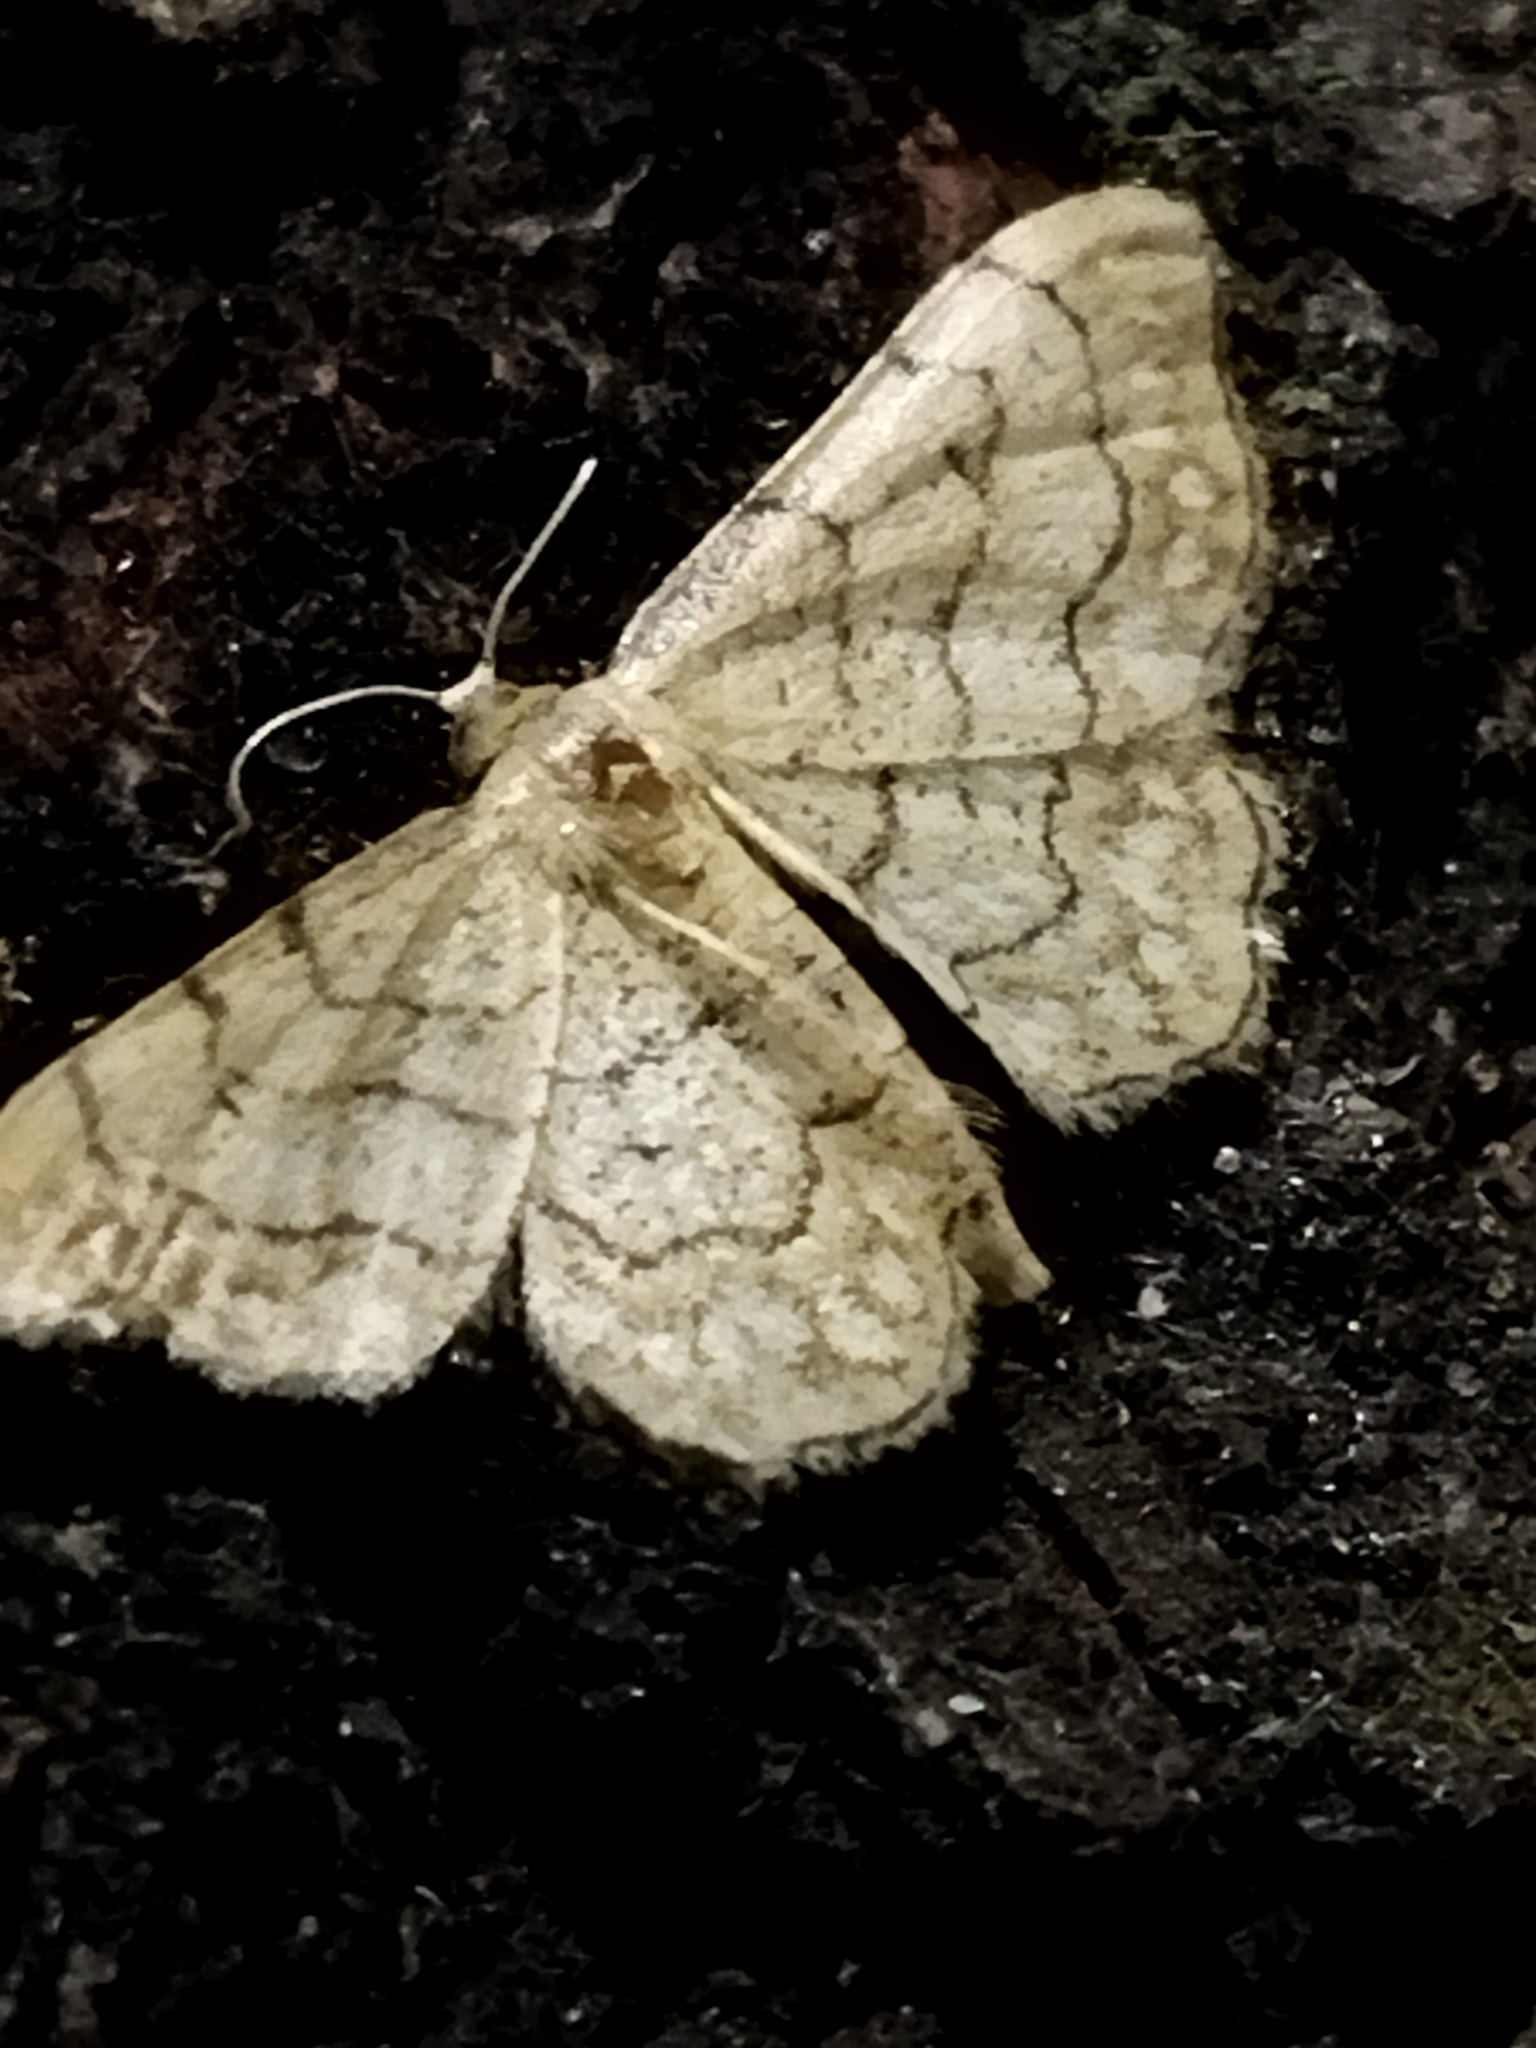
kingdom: Animalia
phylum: Arthropoda
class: Insecta
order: Lepidoptera
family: Geometridae
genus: Idaea
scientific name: Idaea moniliata
